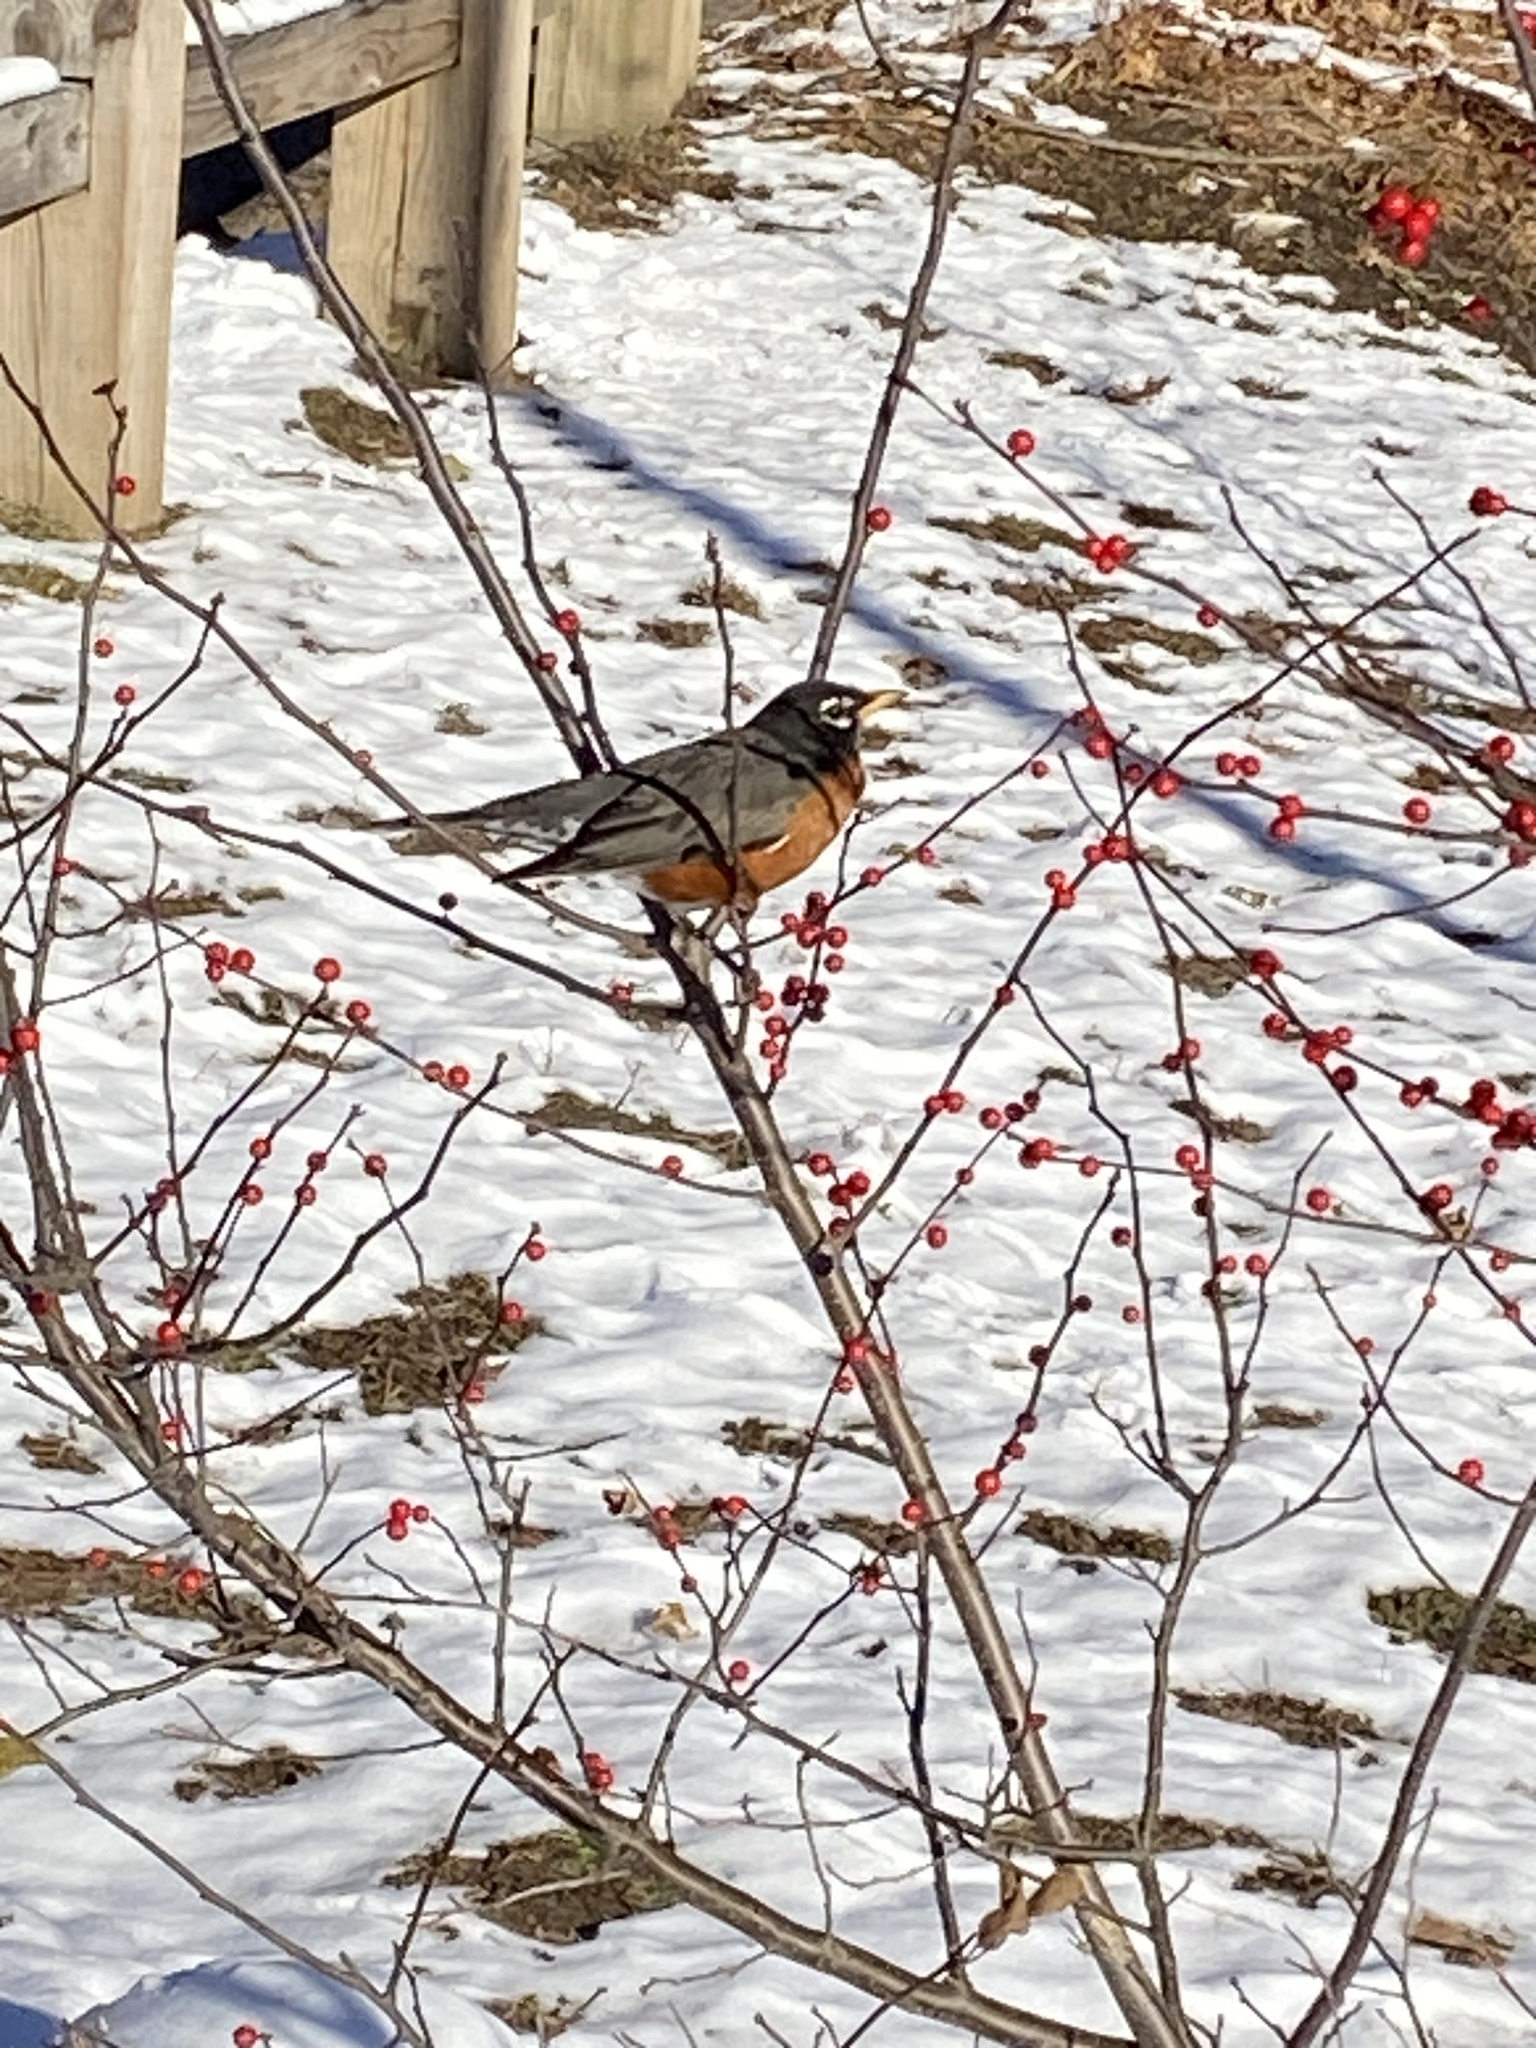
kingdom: Animalia
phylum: Chordata
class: Aves
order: Passeriformes
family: Turdidae
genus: Turdus
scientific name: Turdus migratorius
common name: American robin
